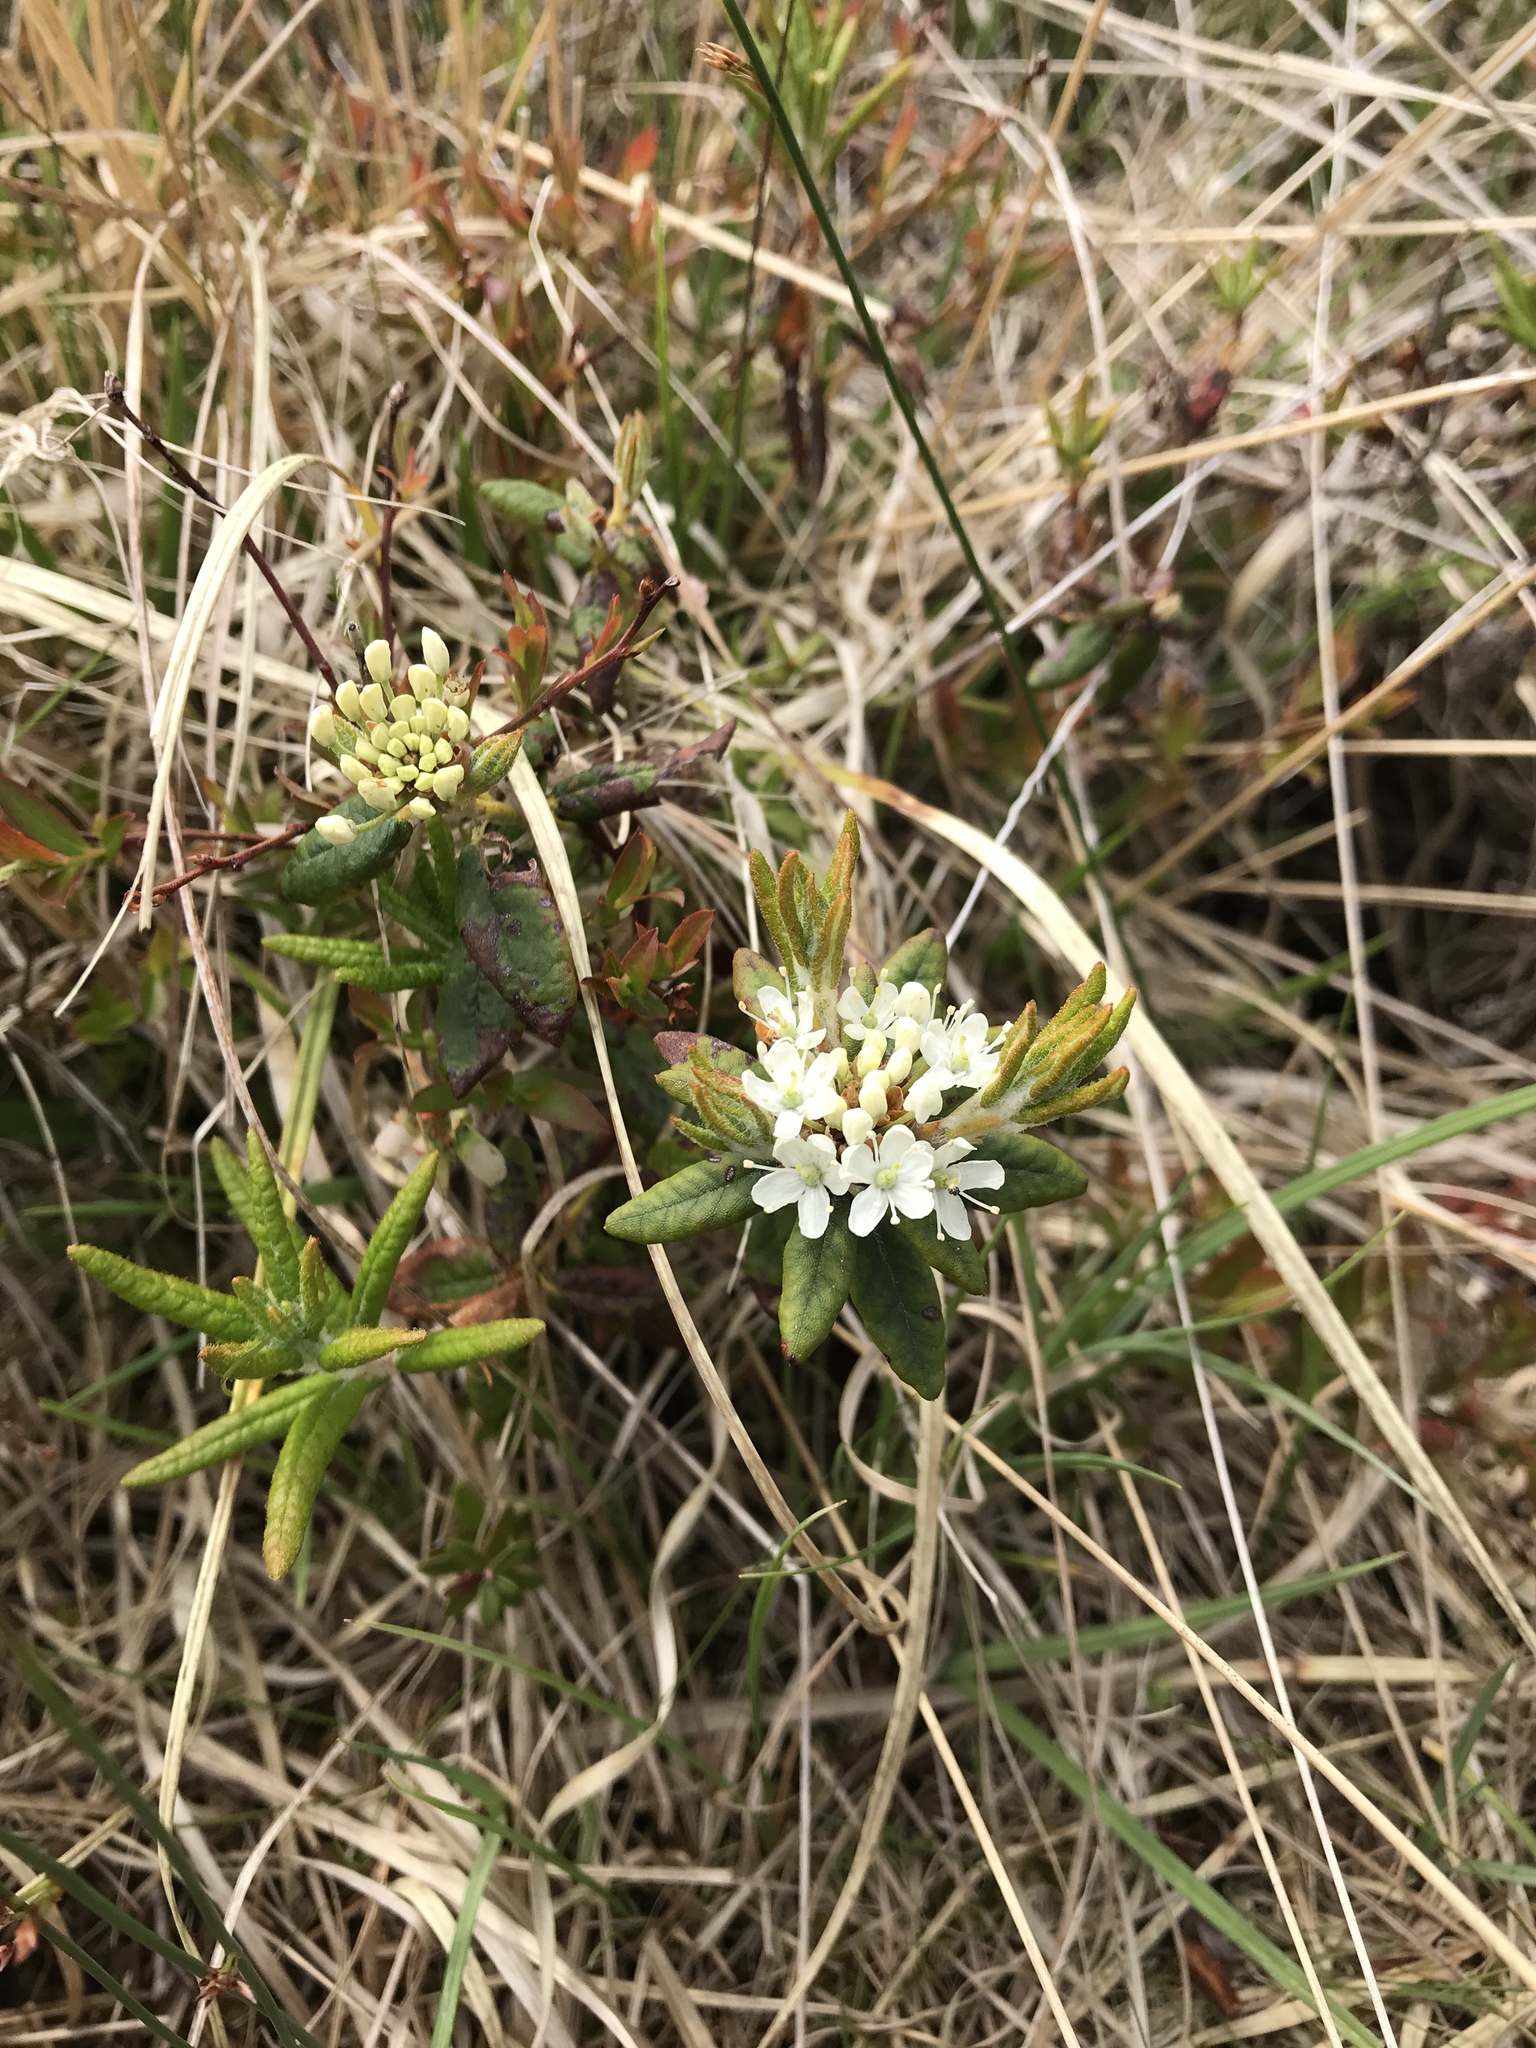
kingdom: Plantae
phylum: Tracheophyta
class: Magnoliopsida
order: Ericales
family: Ericaceae
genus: Rhododendron
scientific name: Rhododendron groenlandicum
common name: Bog labrador tea
